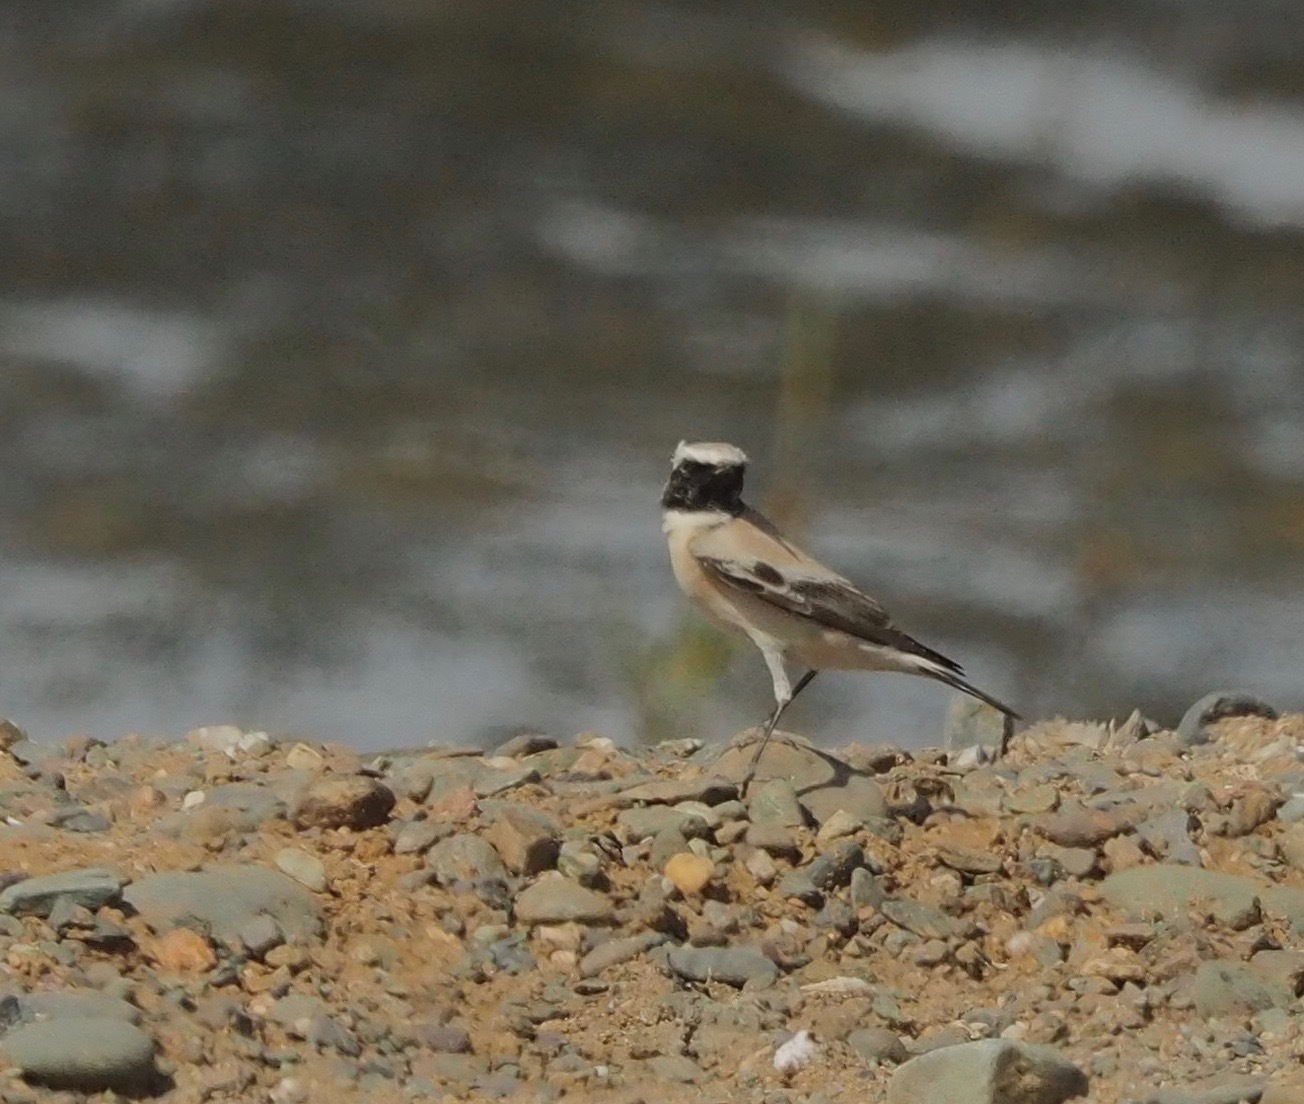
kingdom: Animalia
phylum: Chordata
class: Aves
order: Passeriformes
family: Muscicapidae
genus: Oenanthe
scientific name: Oenanthe deserti
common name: Desert wheatear
